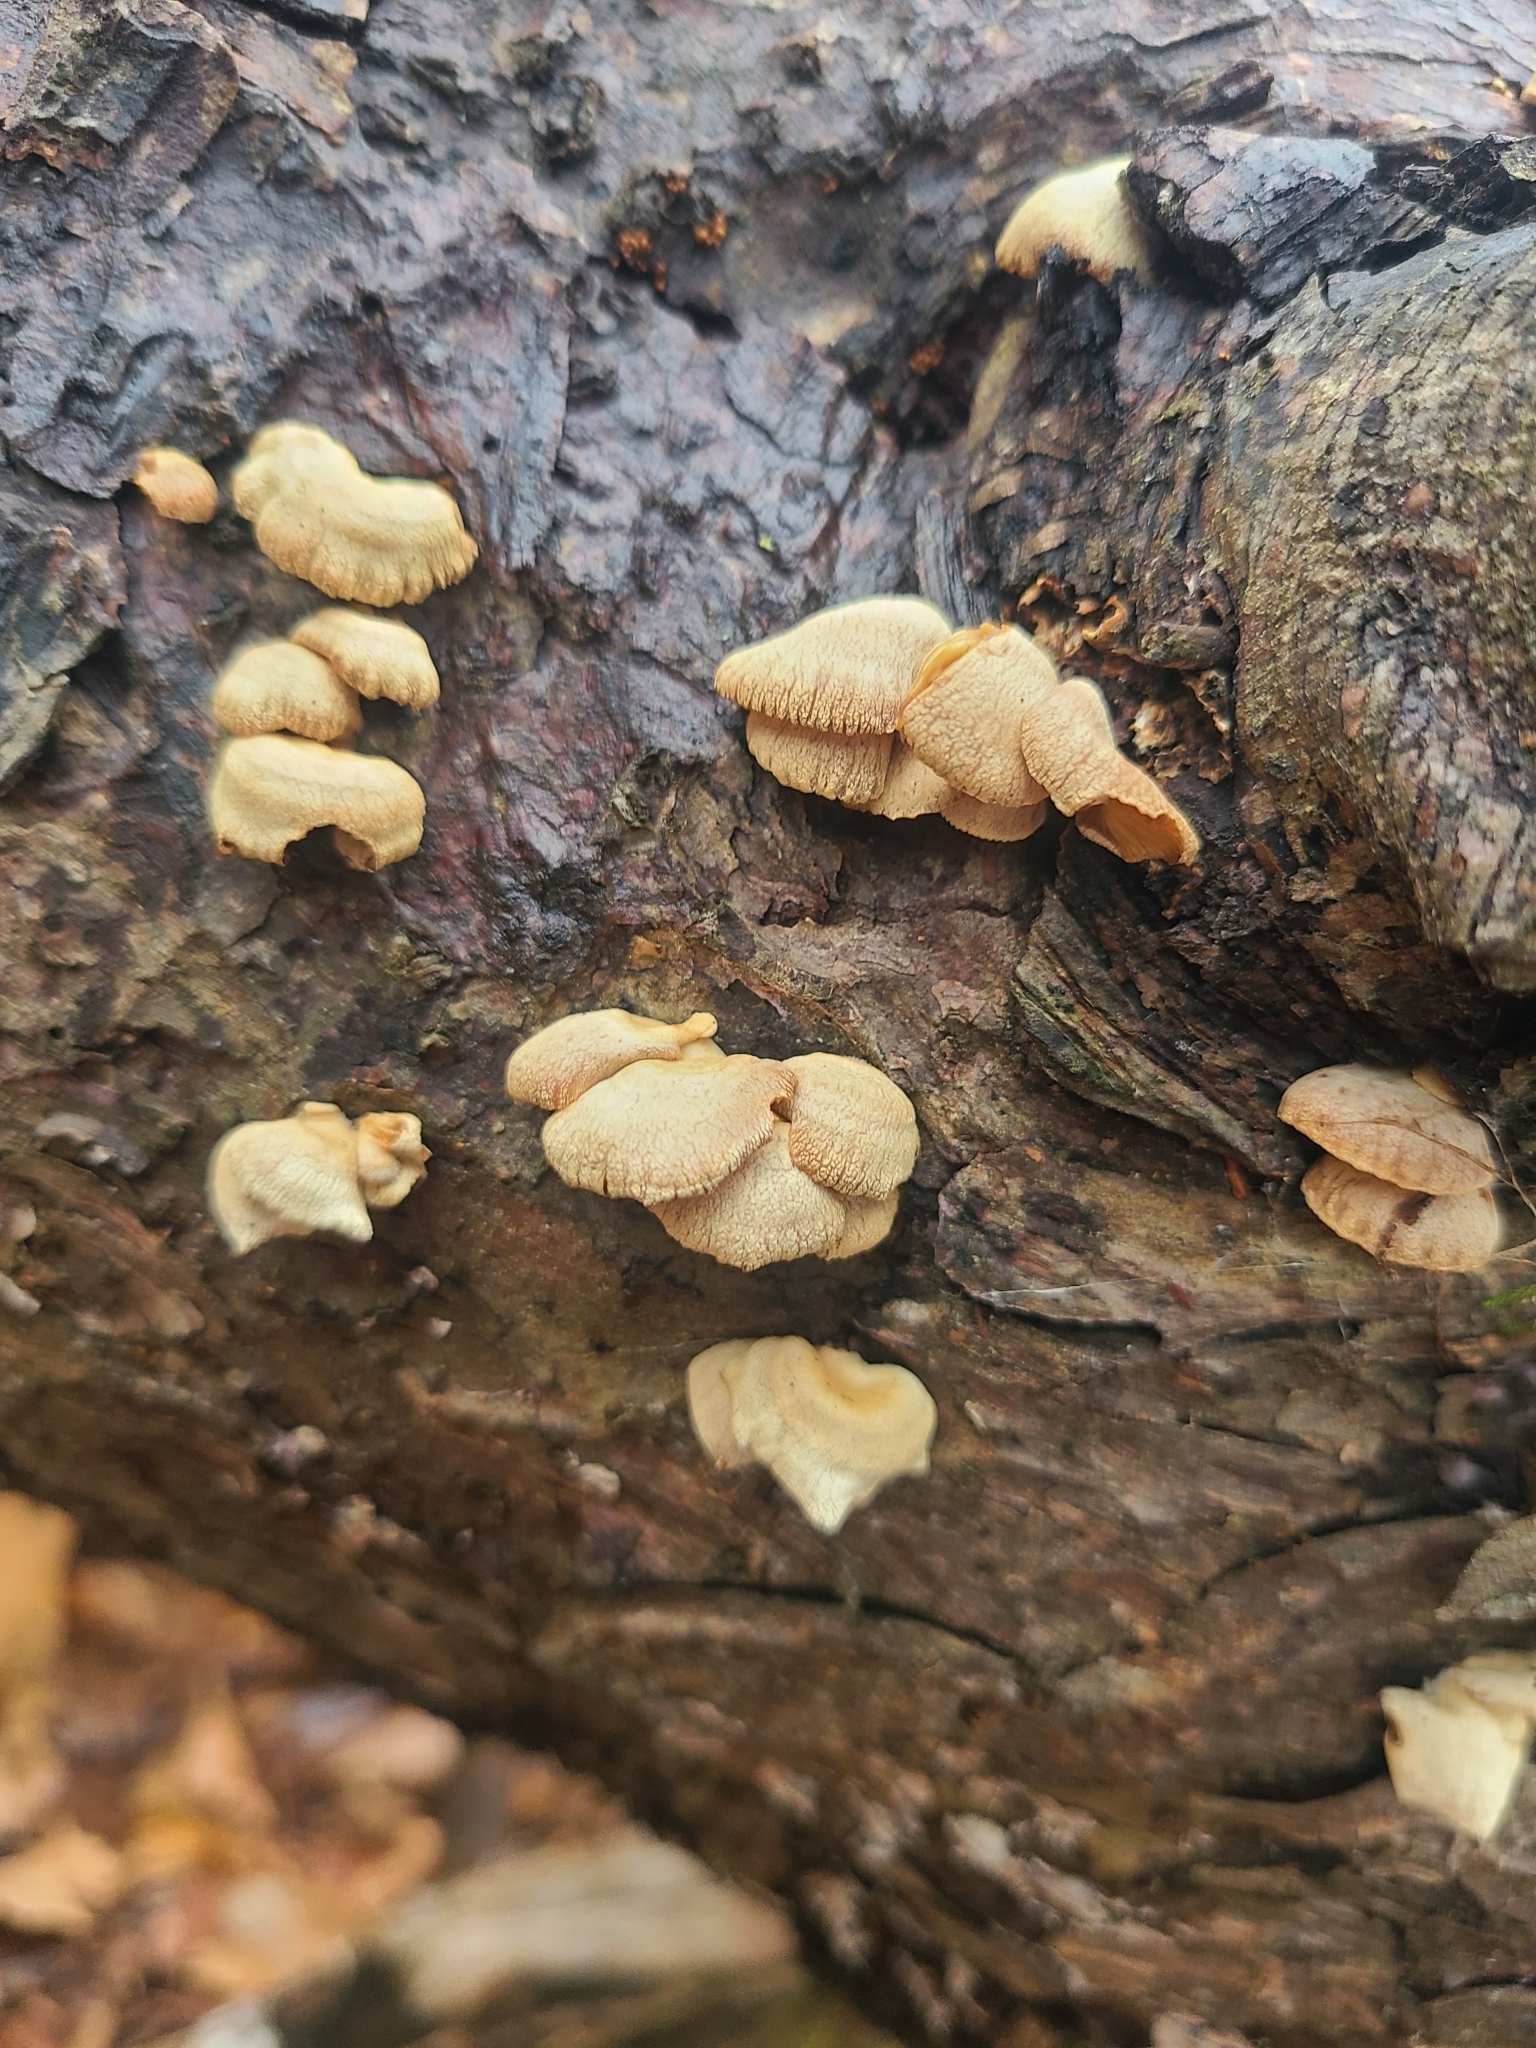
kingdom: Fungi
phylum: Basidiomycota
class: Agaricomycetes
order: Agaricales
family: Mycenaceae
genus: Panellus
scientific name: Panellus stipticus
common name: Bitter oysterling
